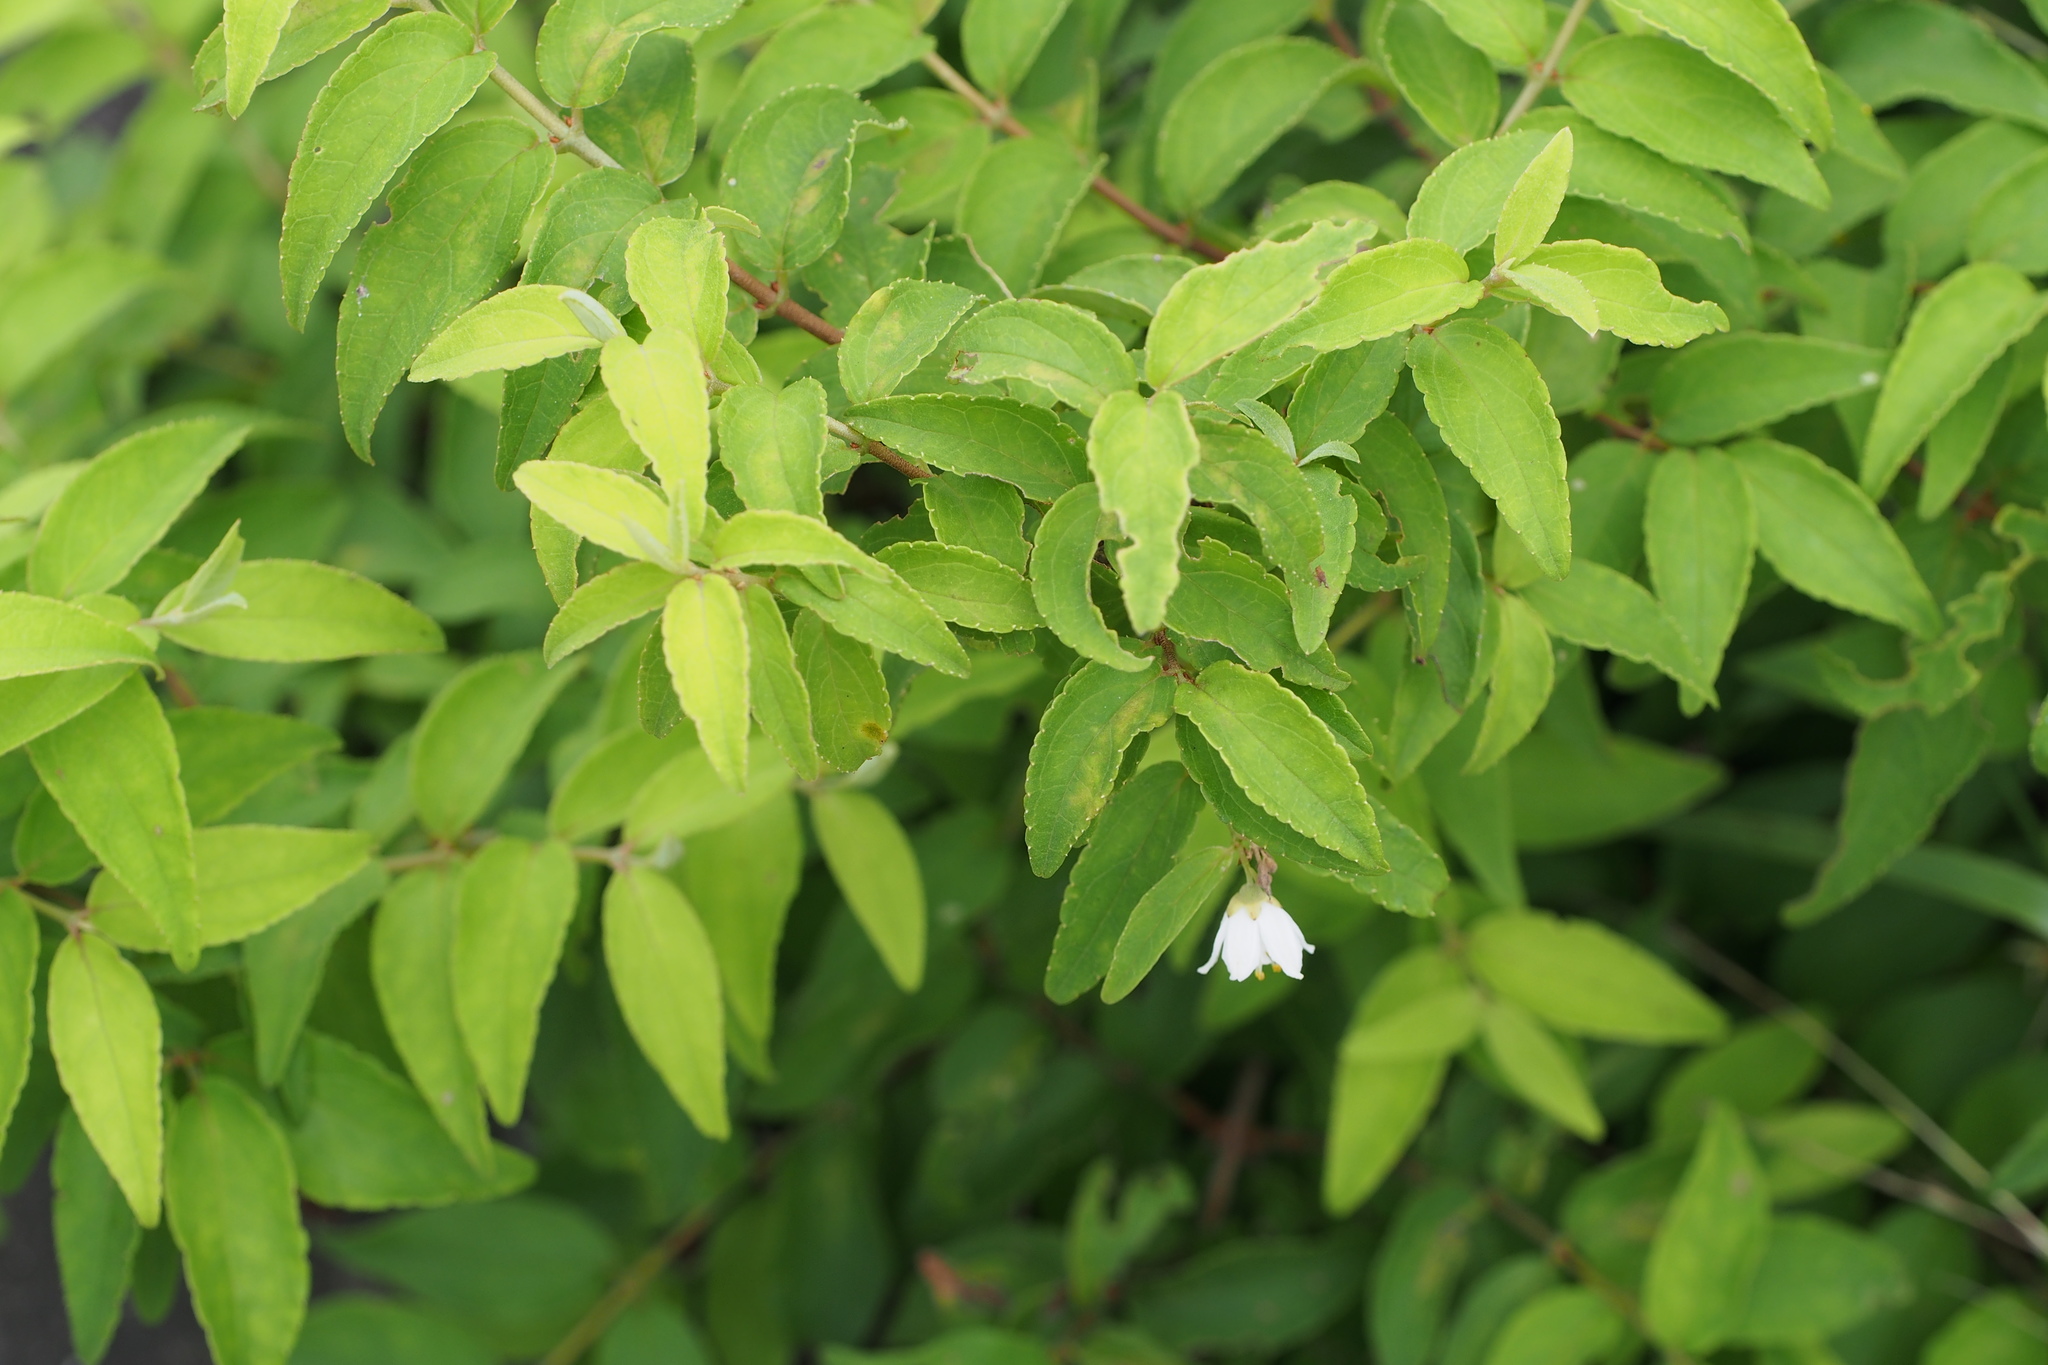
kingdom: Plantae
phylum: Tracheophyta
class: Magnoliopsida
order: Cornales
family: Hydrangeaceae
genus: Deutzia
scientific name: Deutzia crenata
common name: Deutzia
